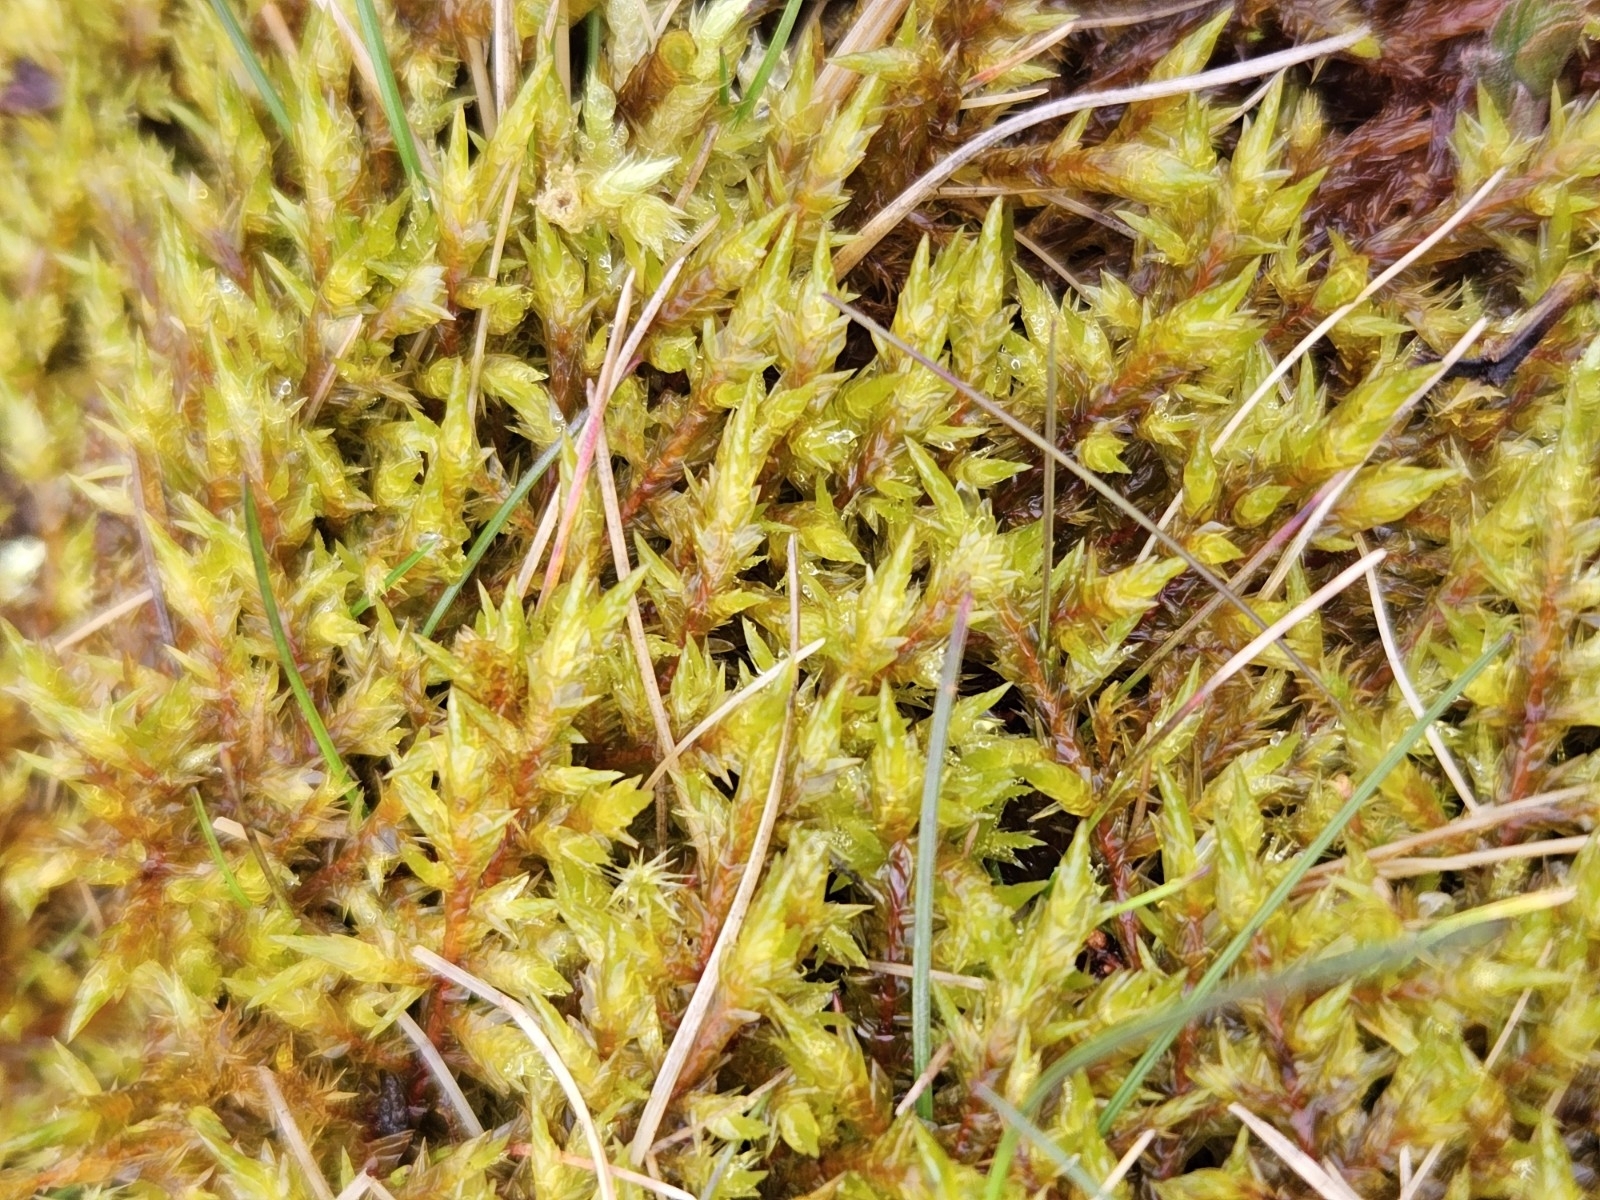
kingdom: Plantae
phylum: Bryophyta
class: Bryopsida
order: Hypnales
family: Pylaisiaceae
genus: Calliergonella
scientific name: Calliergonella cuspidata
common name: Common large wetland moss
